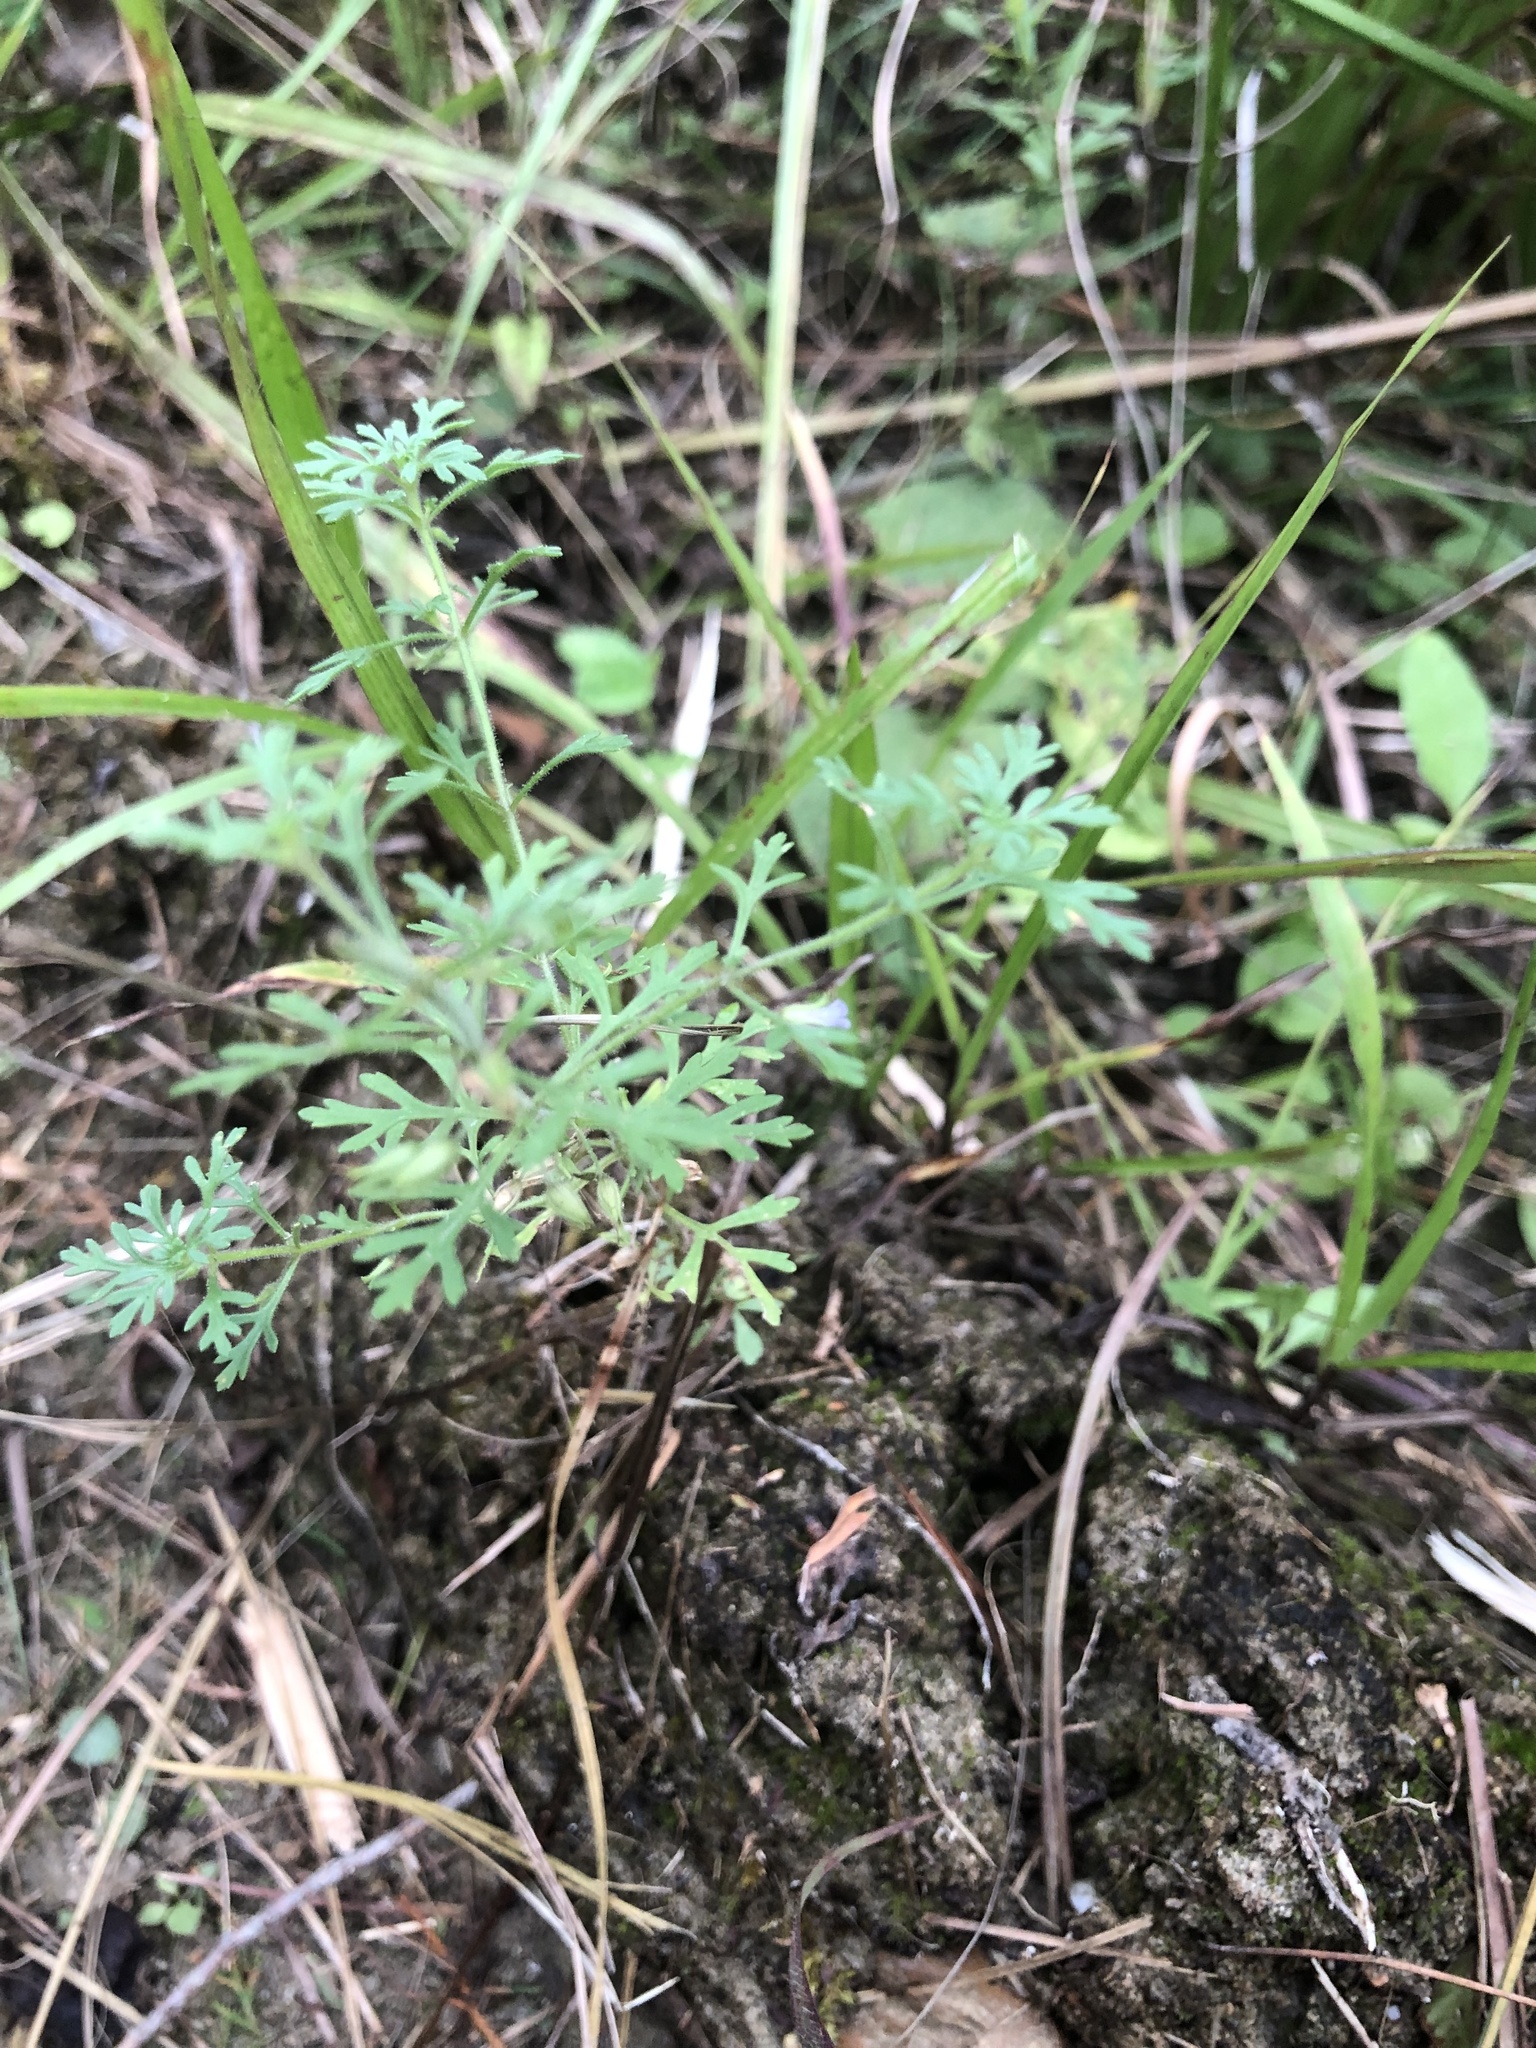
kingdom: Plantae
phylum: Tracheophyta
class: Magnoliopsida
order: Lamiales
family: Plantaginaceae
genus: Leucospora
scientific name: Leucospora multifida
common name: Narrow-leaf paleseed
